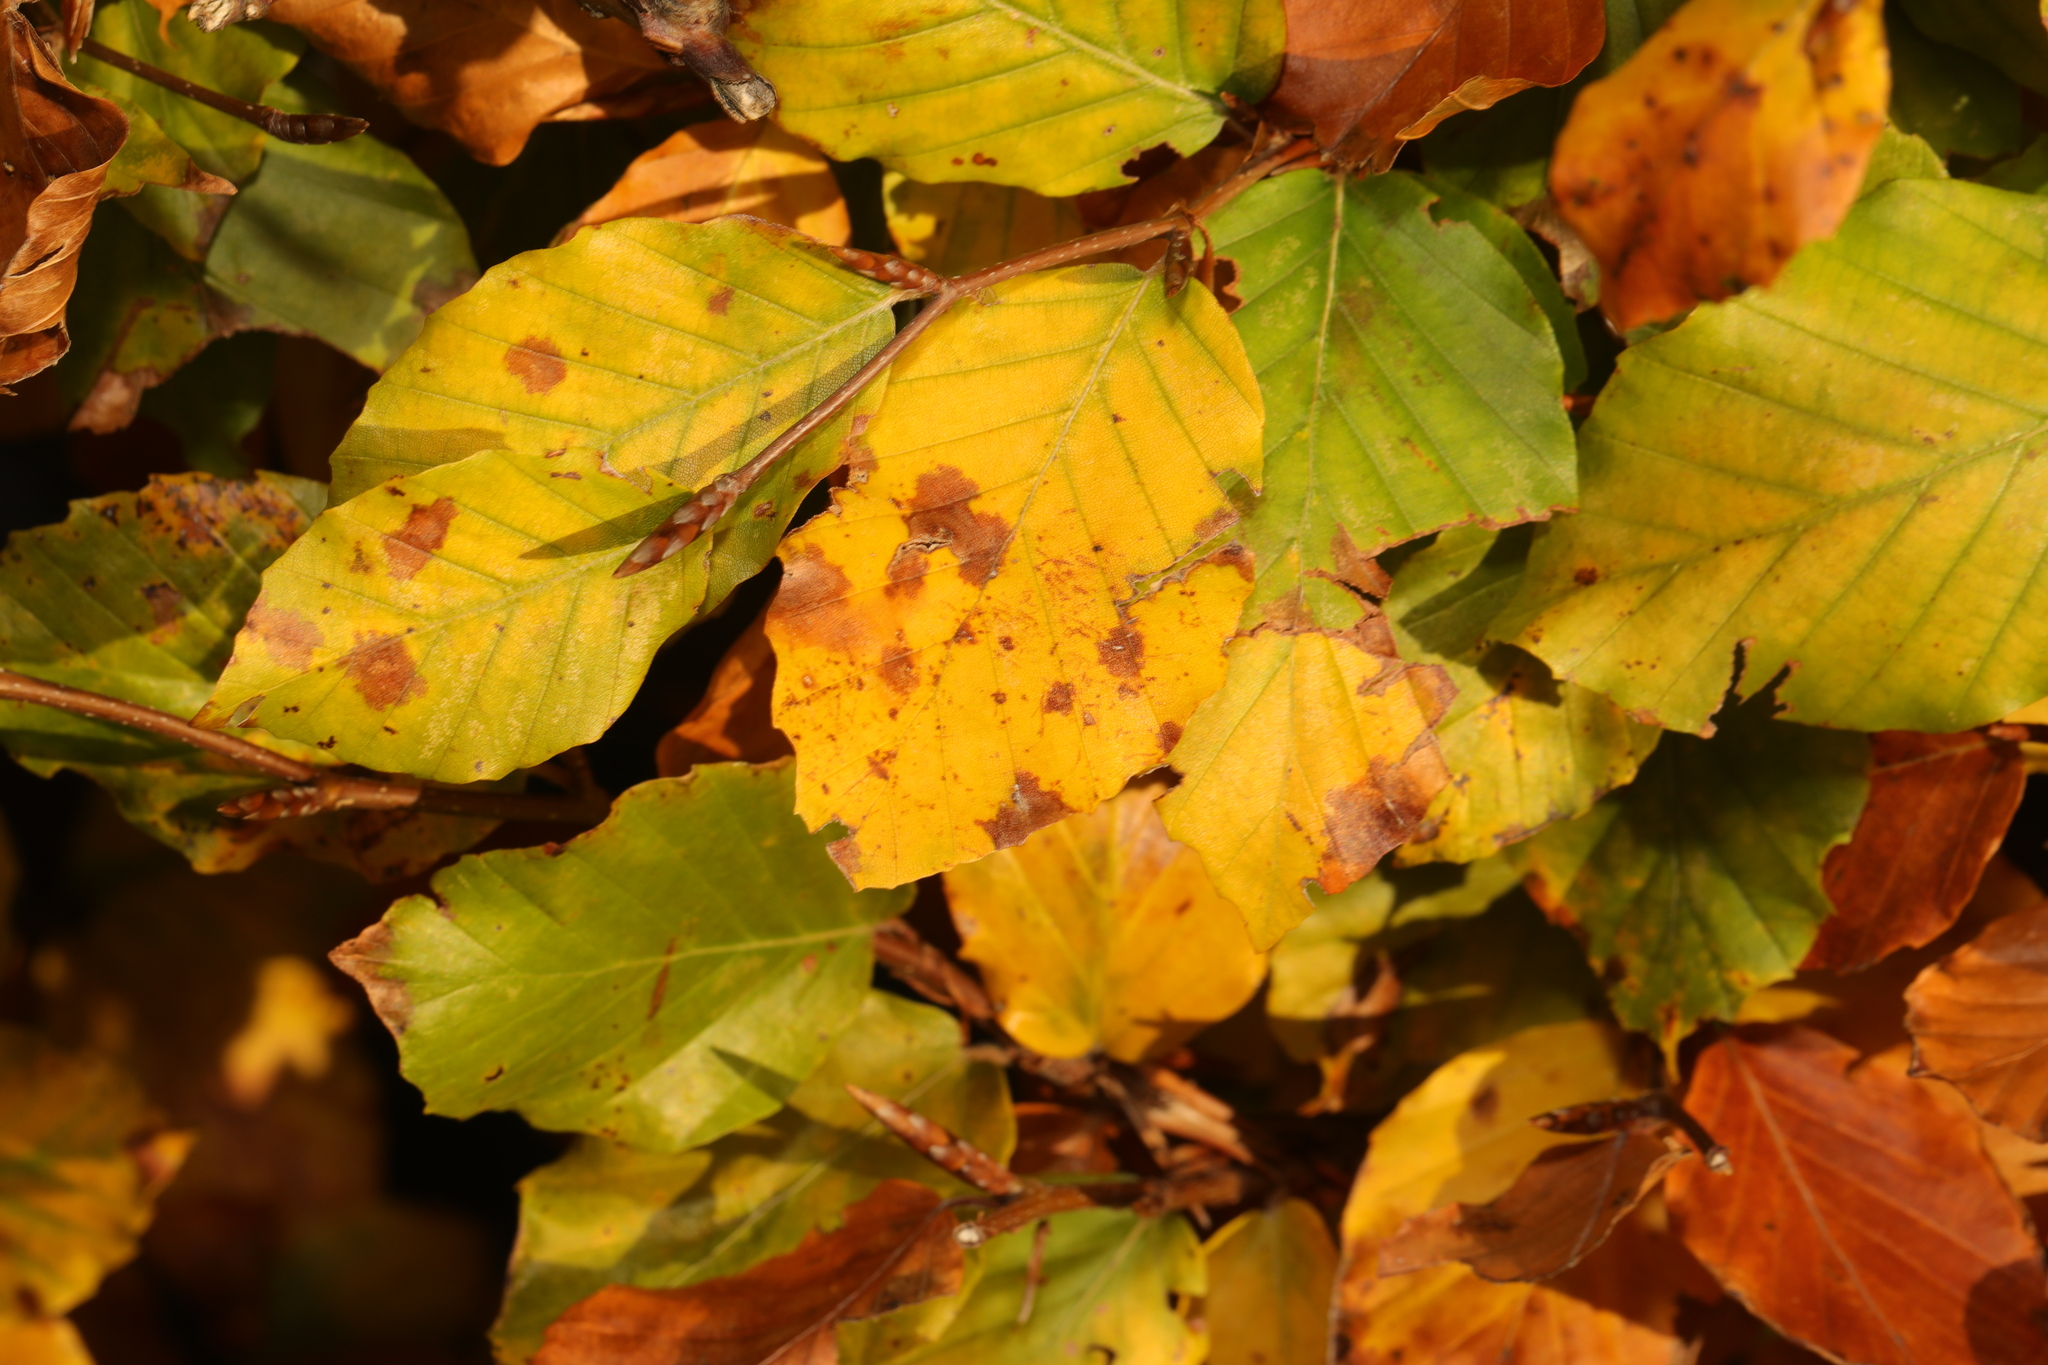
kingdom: Plantae
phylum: Tracheophyta
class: Magnoliopsida
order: Fagales
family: Fagaceae
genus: Fagus
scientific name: Fagus sylvatica
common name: Beech
